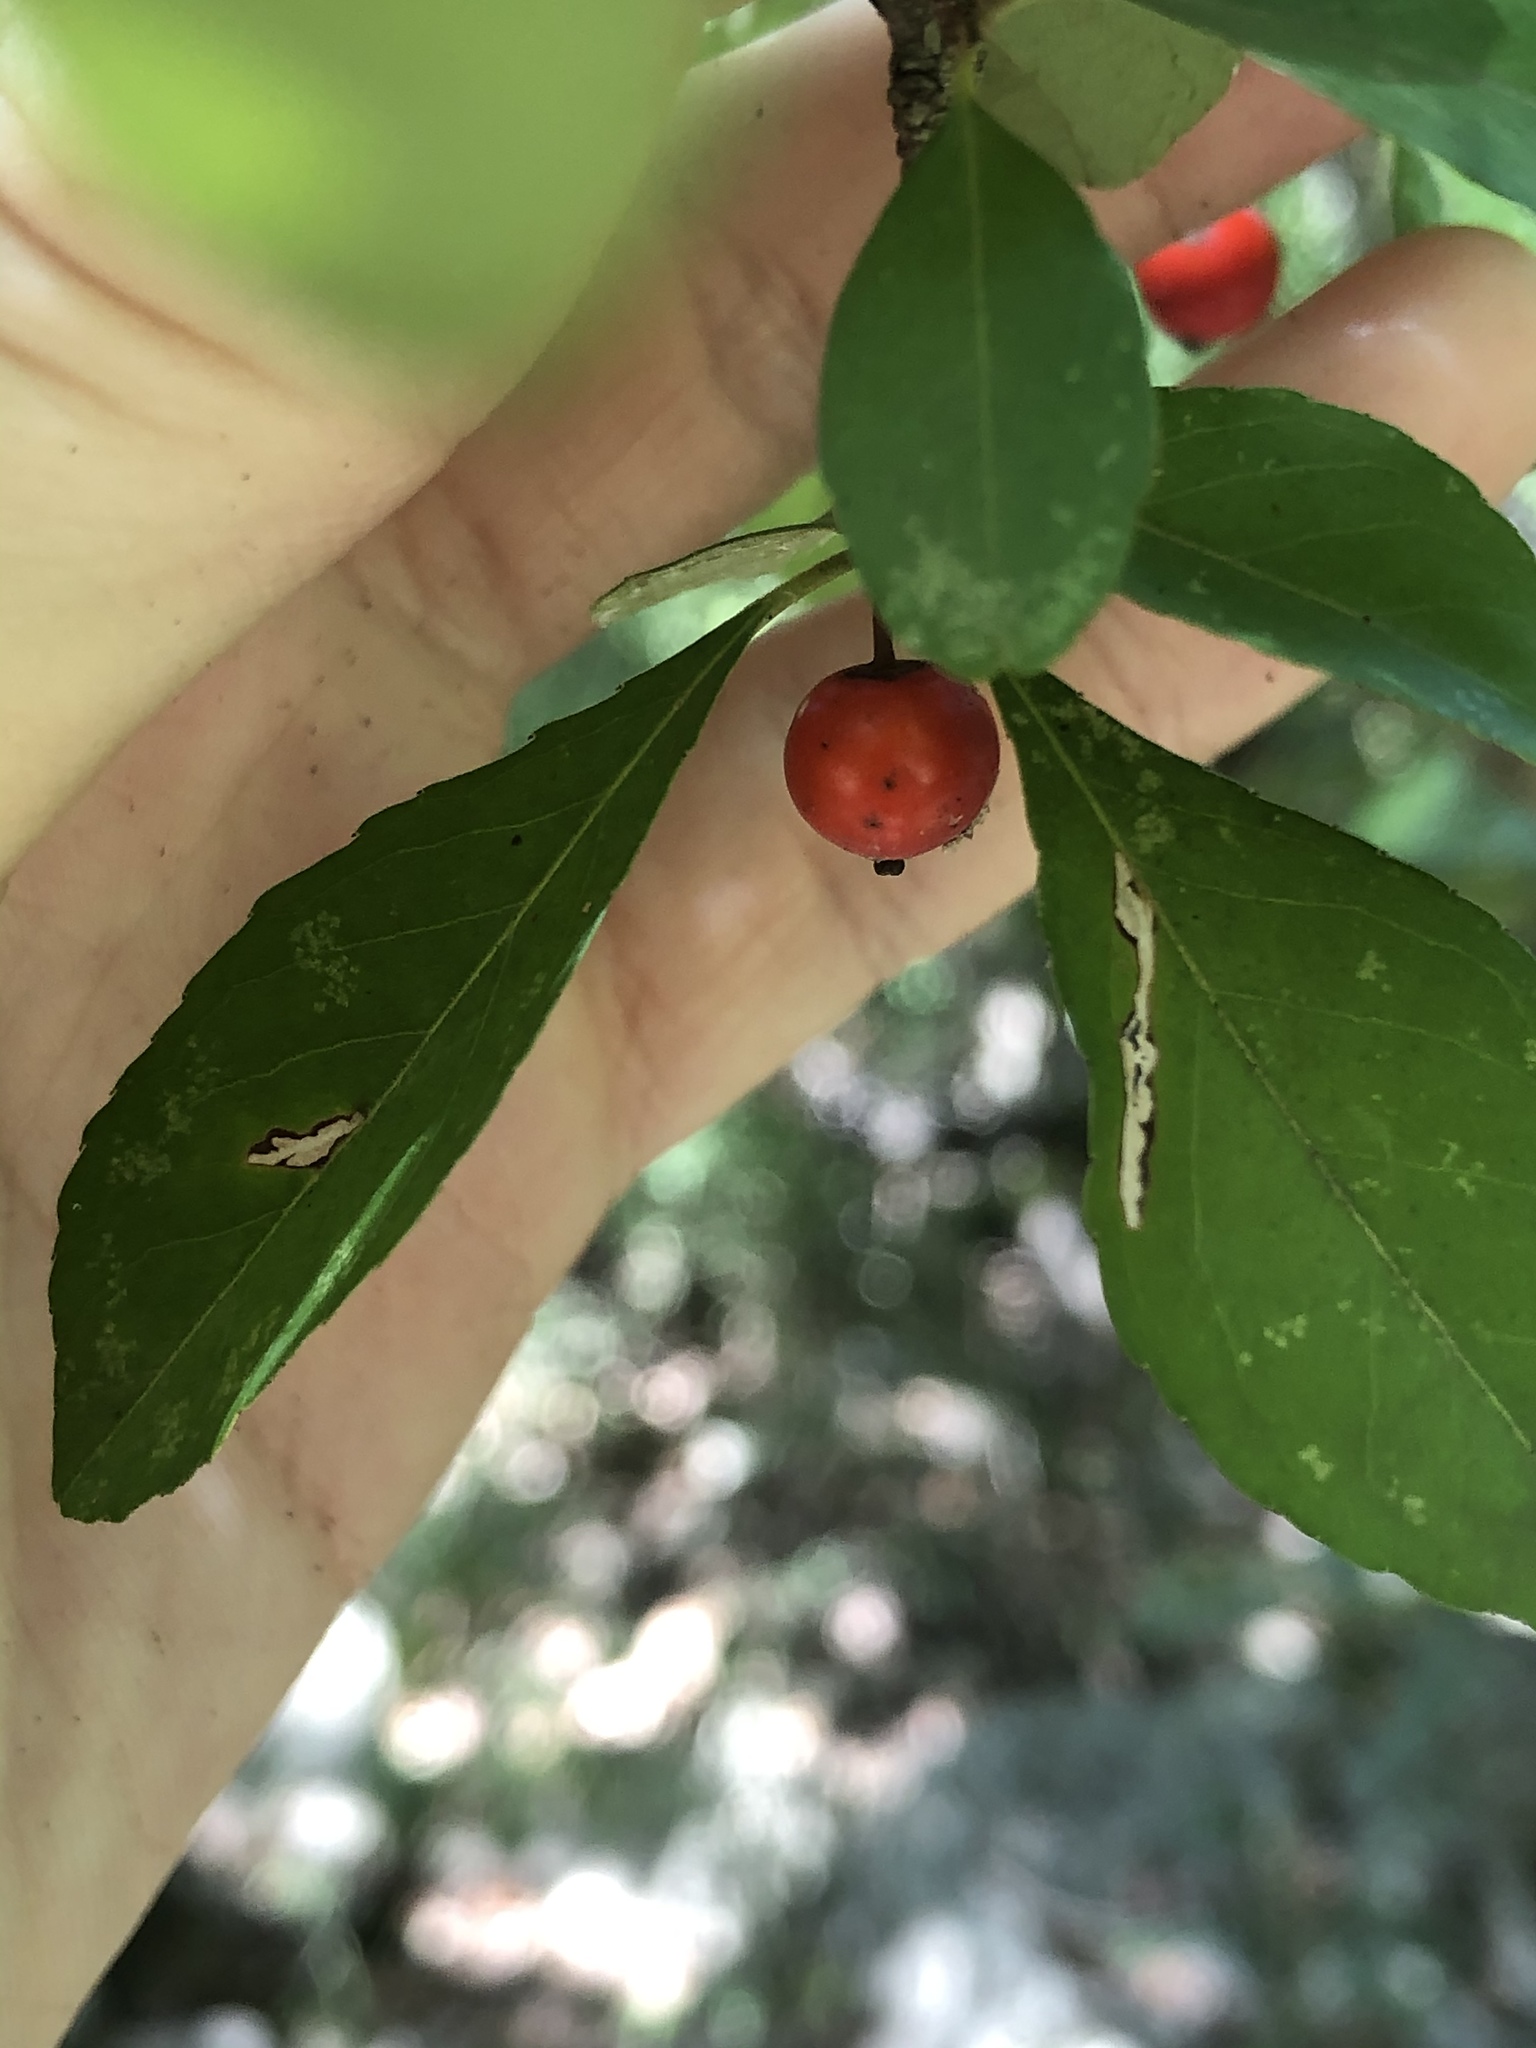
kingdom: Plantae
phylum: Tracheophyta
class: Magnoliopsida
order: Aquifoliales
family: Aquifoliaceae
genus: Ilex
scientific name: Ilex decidua
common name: Possum-haw
